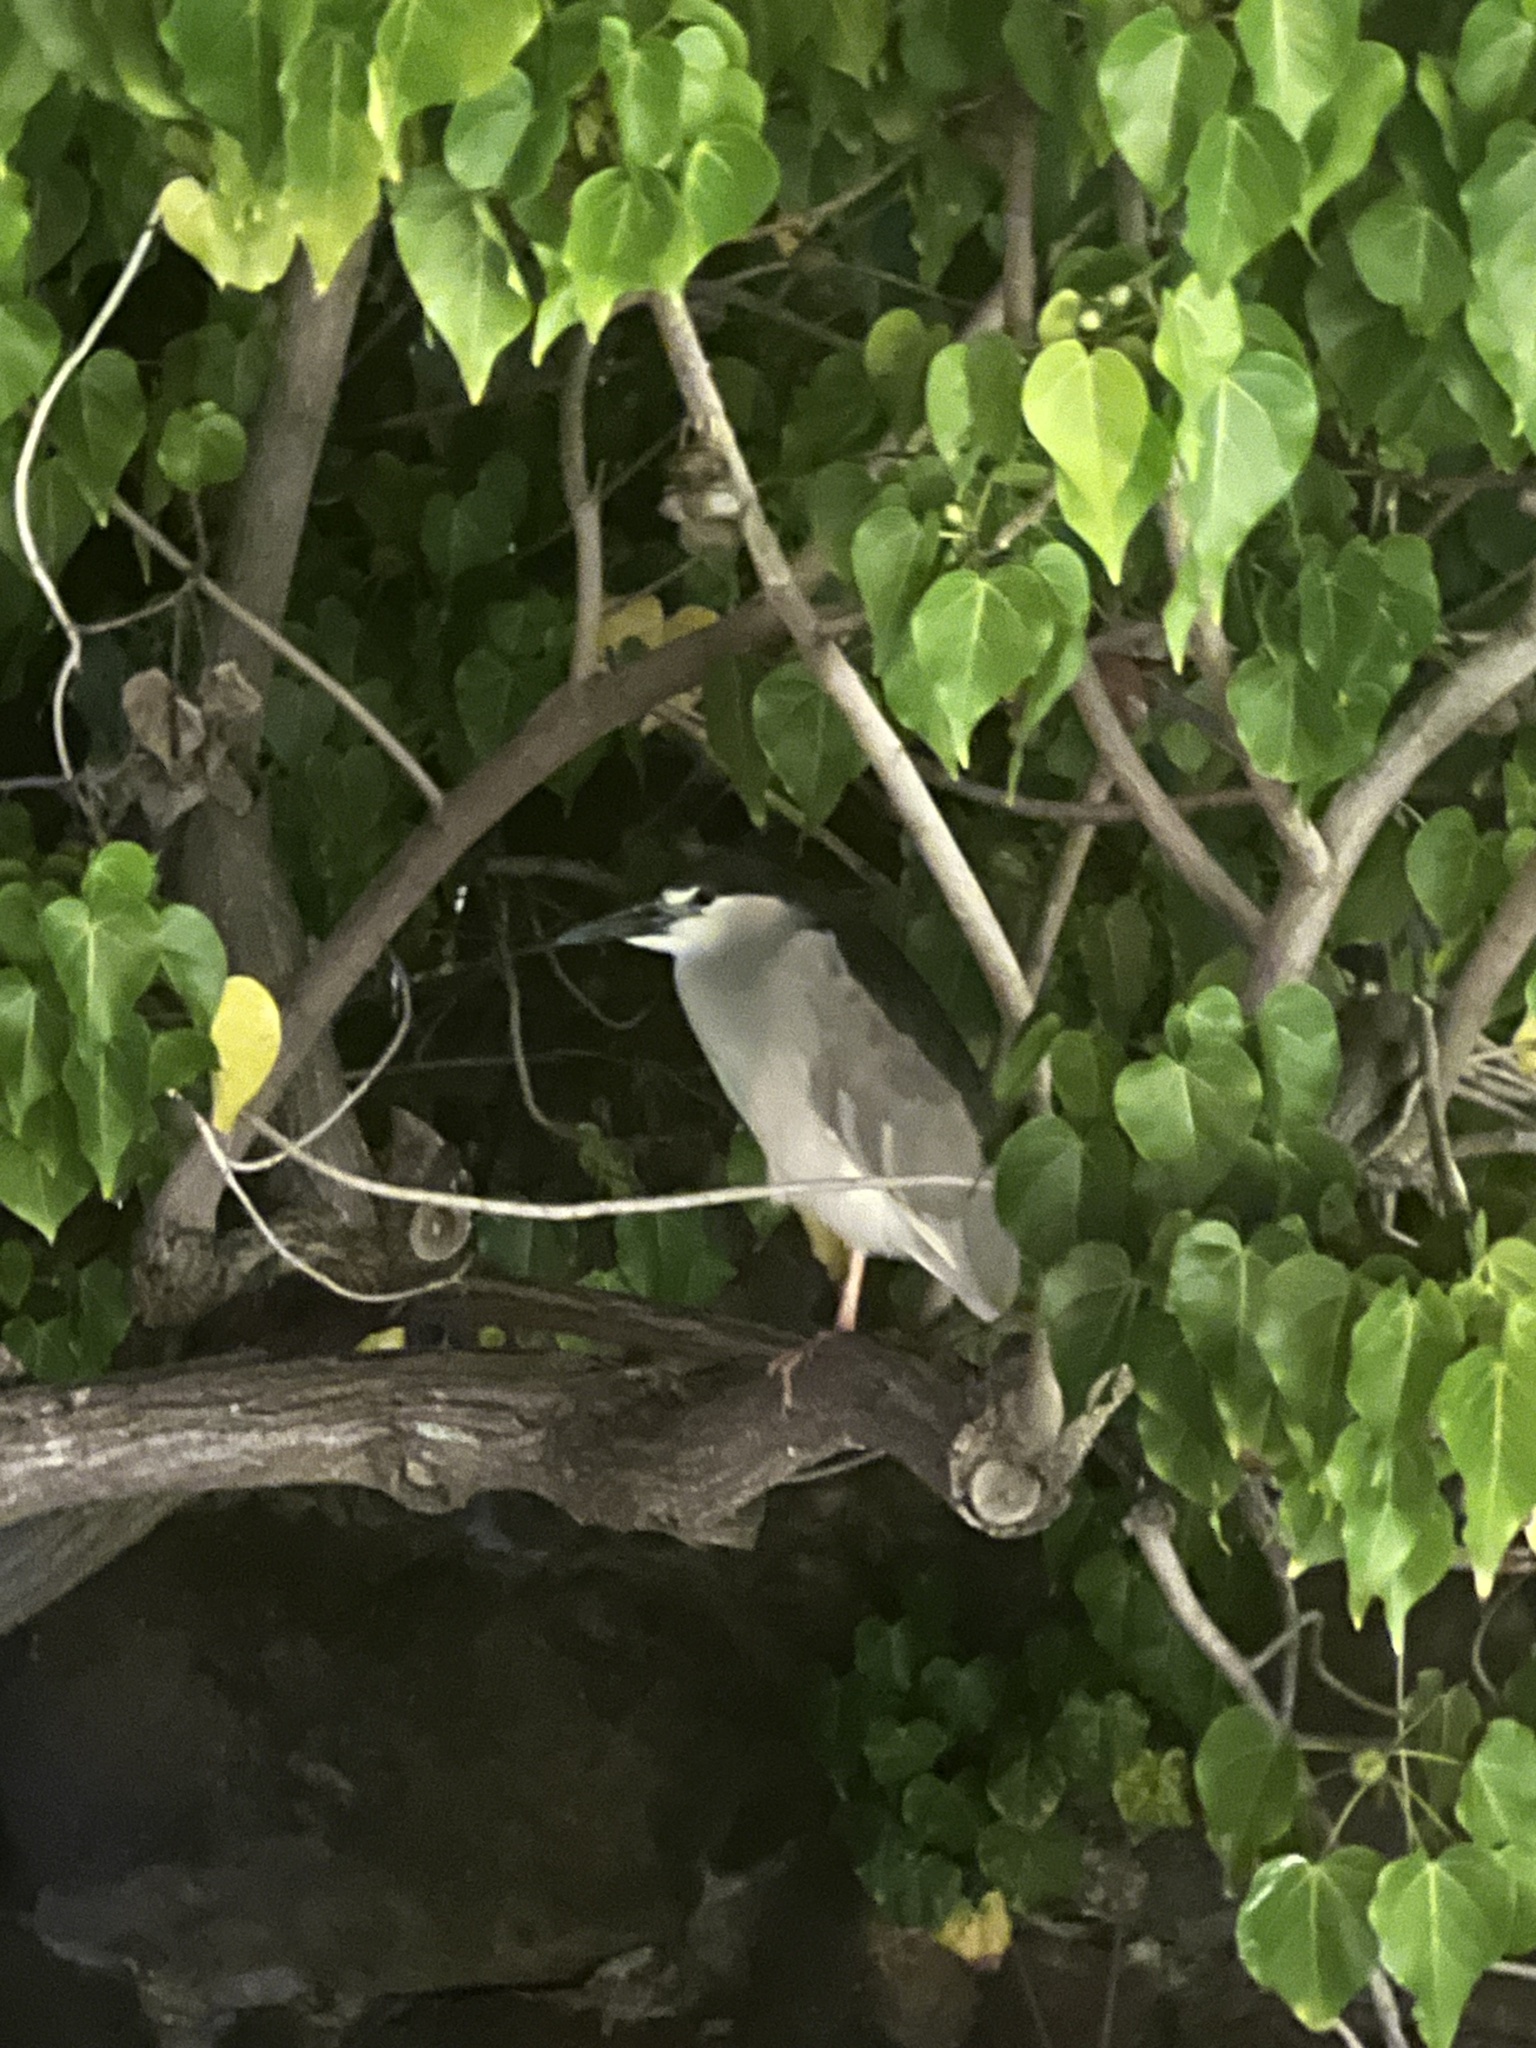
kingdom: Animalia
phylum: Chordata
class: Aves
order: Pelecaniformes
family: Ardeidae
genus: Nycticorax
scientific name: Nycticorax nycticorax
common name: Black-crowned night heron
